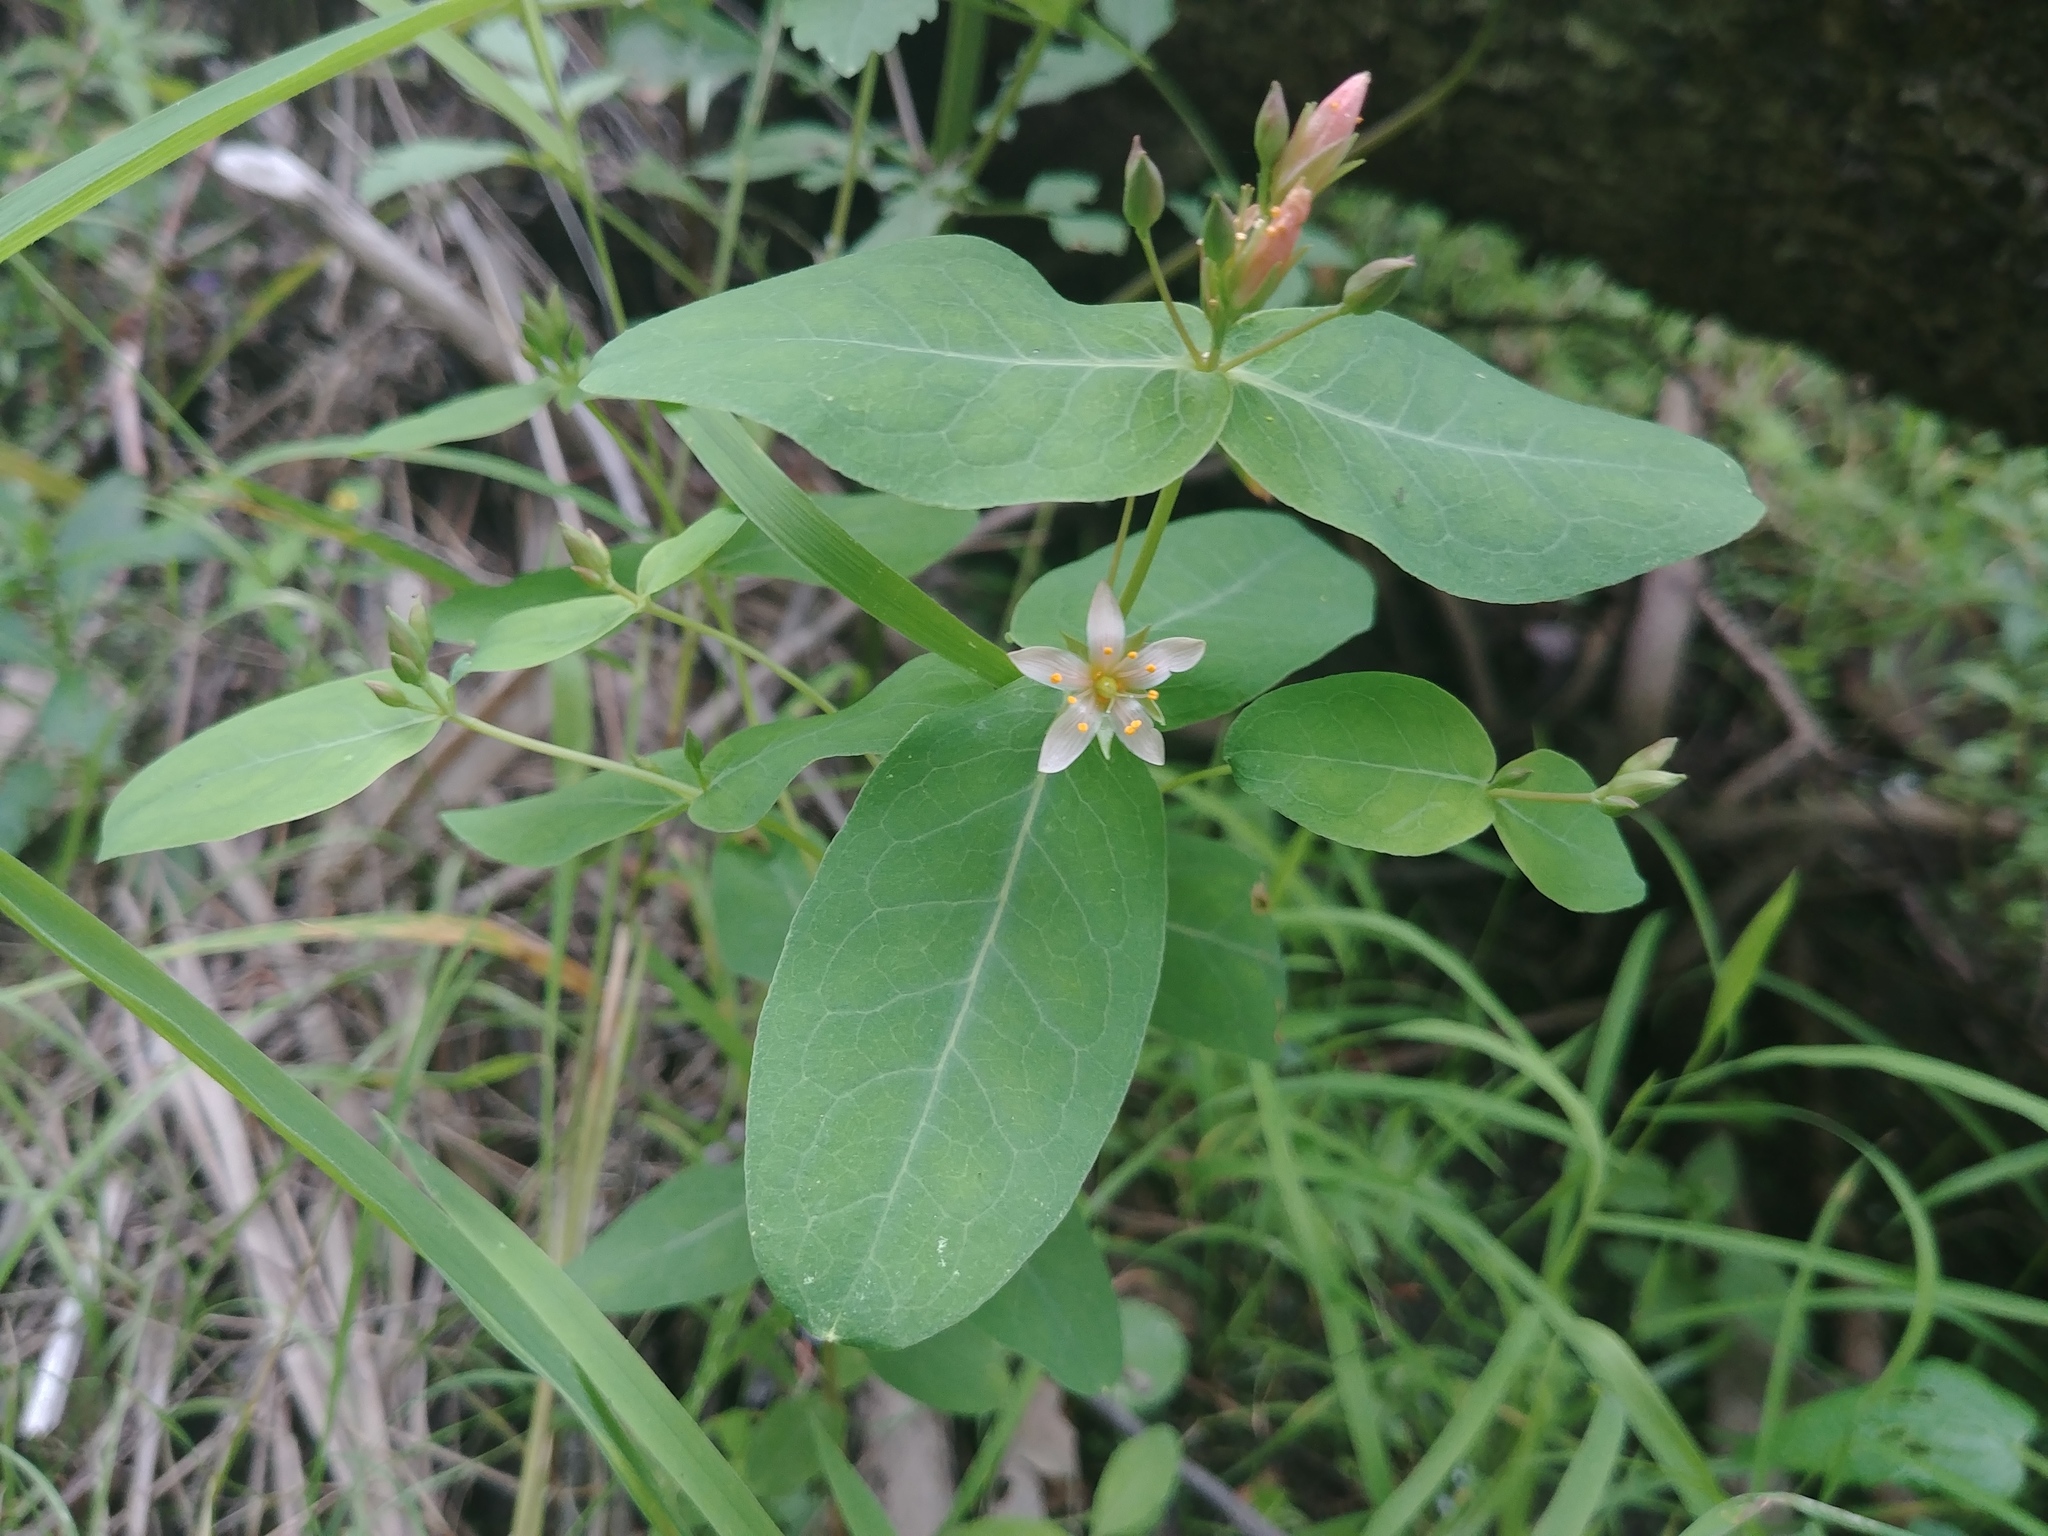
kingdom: Plantae
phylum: Tracheophyta
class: Magnoliopsida
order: Malpighiales
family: Hypericaceae
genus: Triadenum
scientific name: Triadenum virginicum
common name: Marsh st. john's-wort
